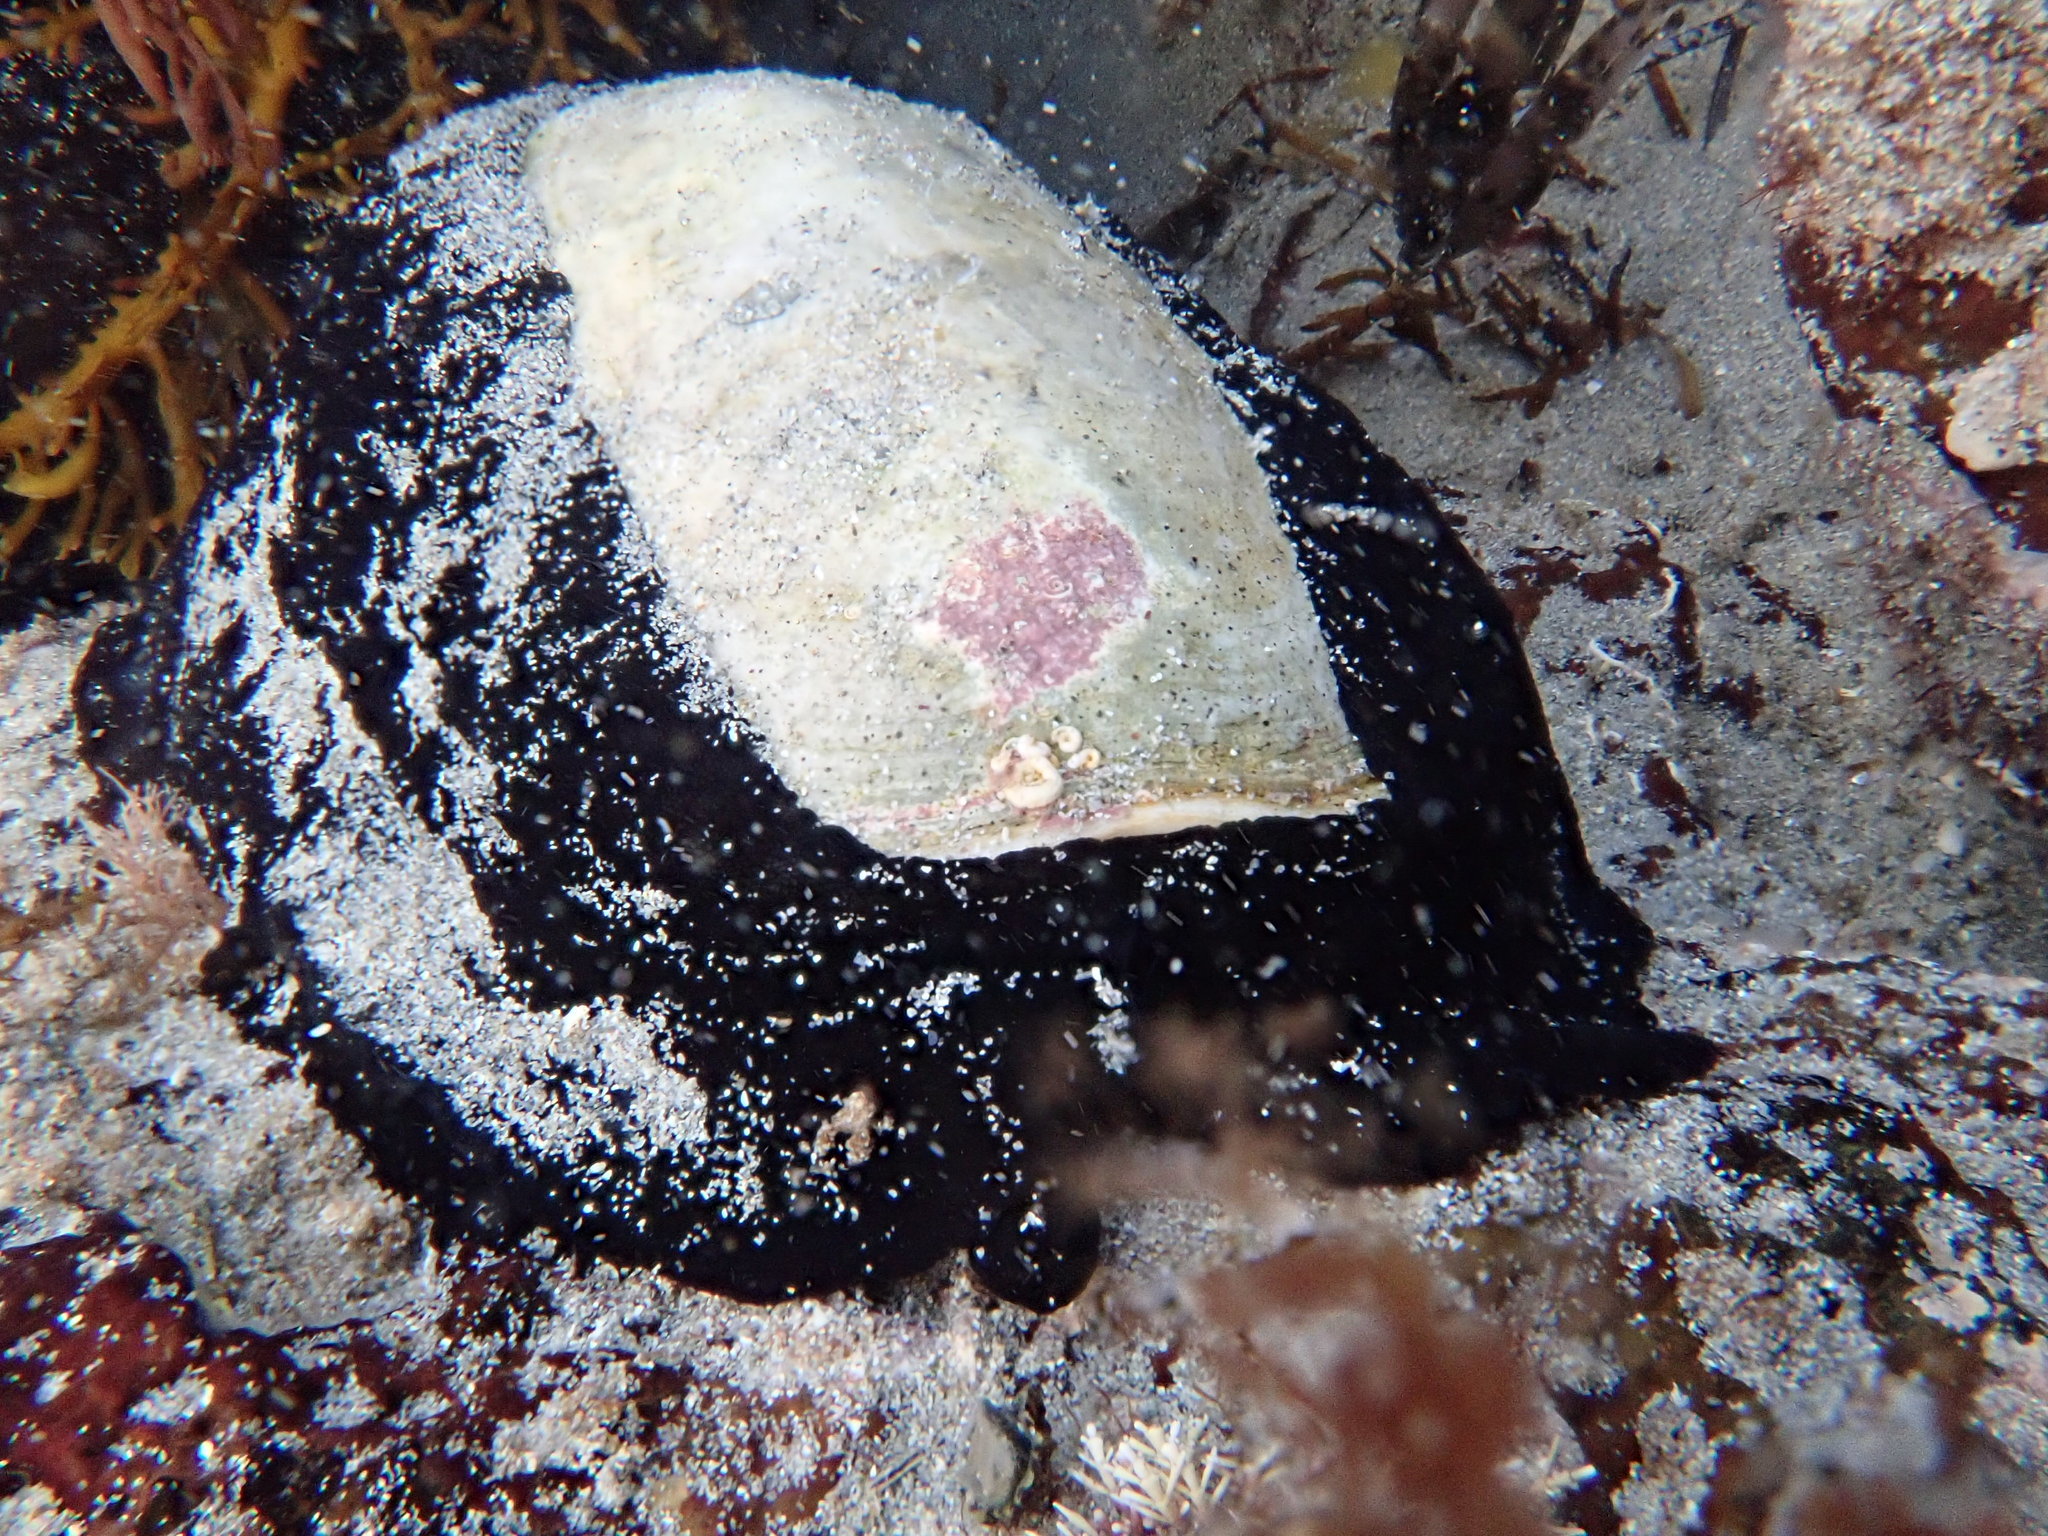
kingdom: Animalia
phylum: Mollusca
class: Gastropoda
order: Lepetellida
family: Fissurellidae
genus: Scutus
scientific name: Scutus antipodes
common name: Duckbill shell
